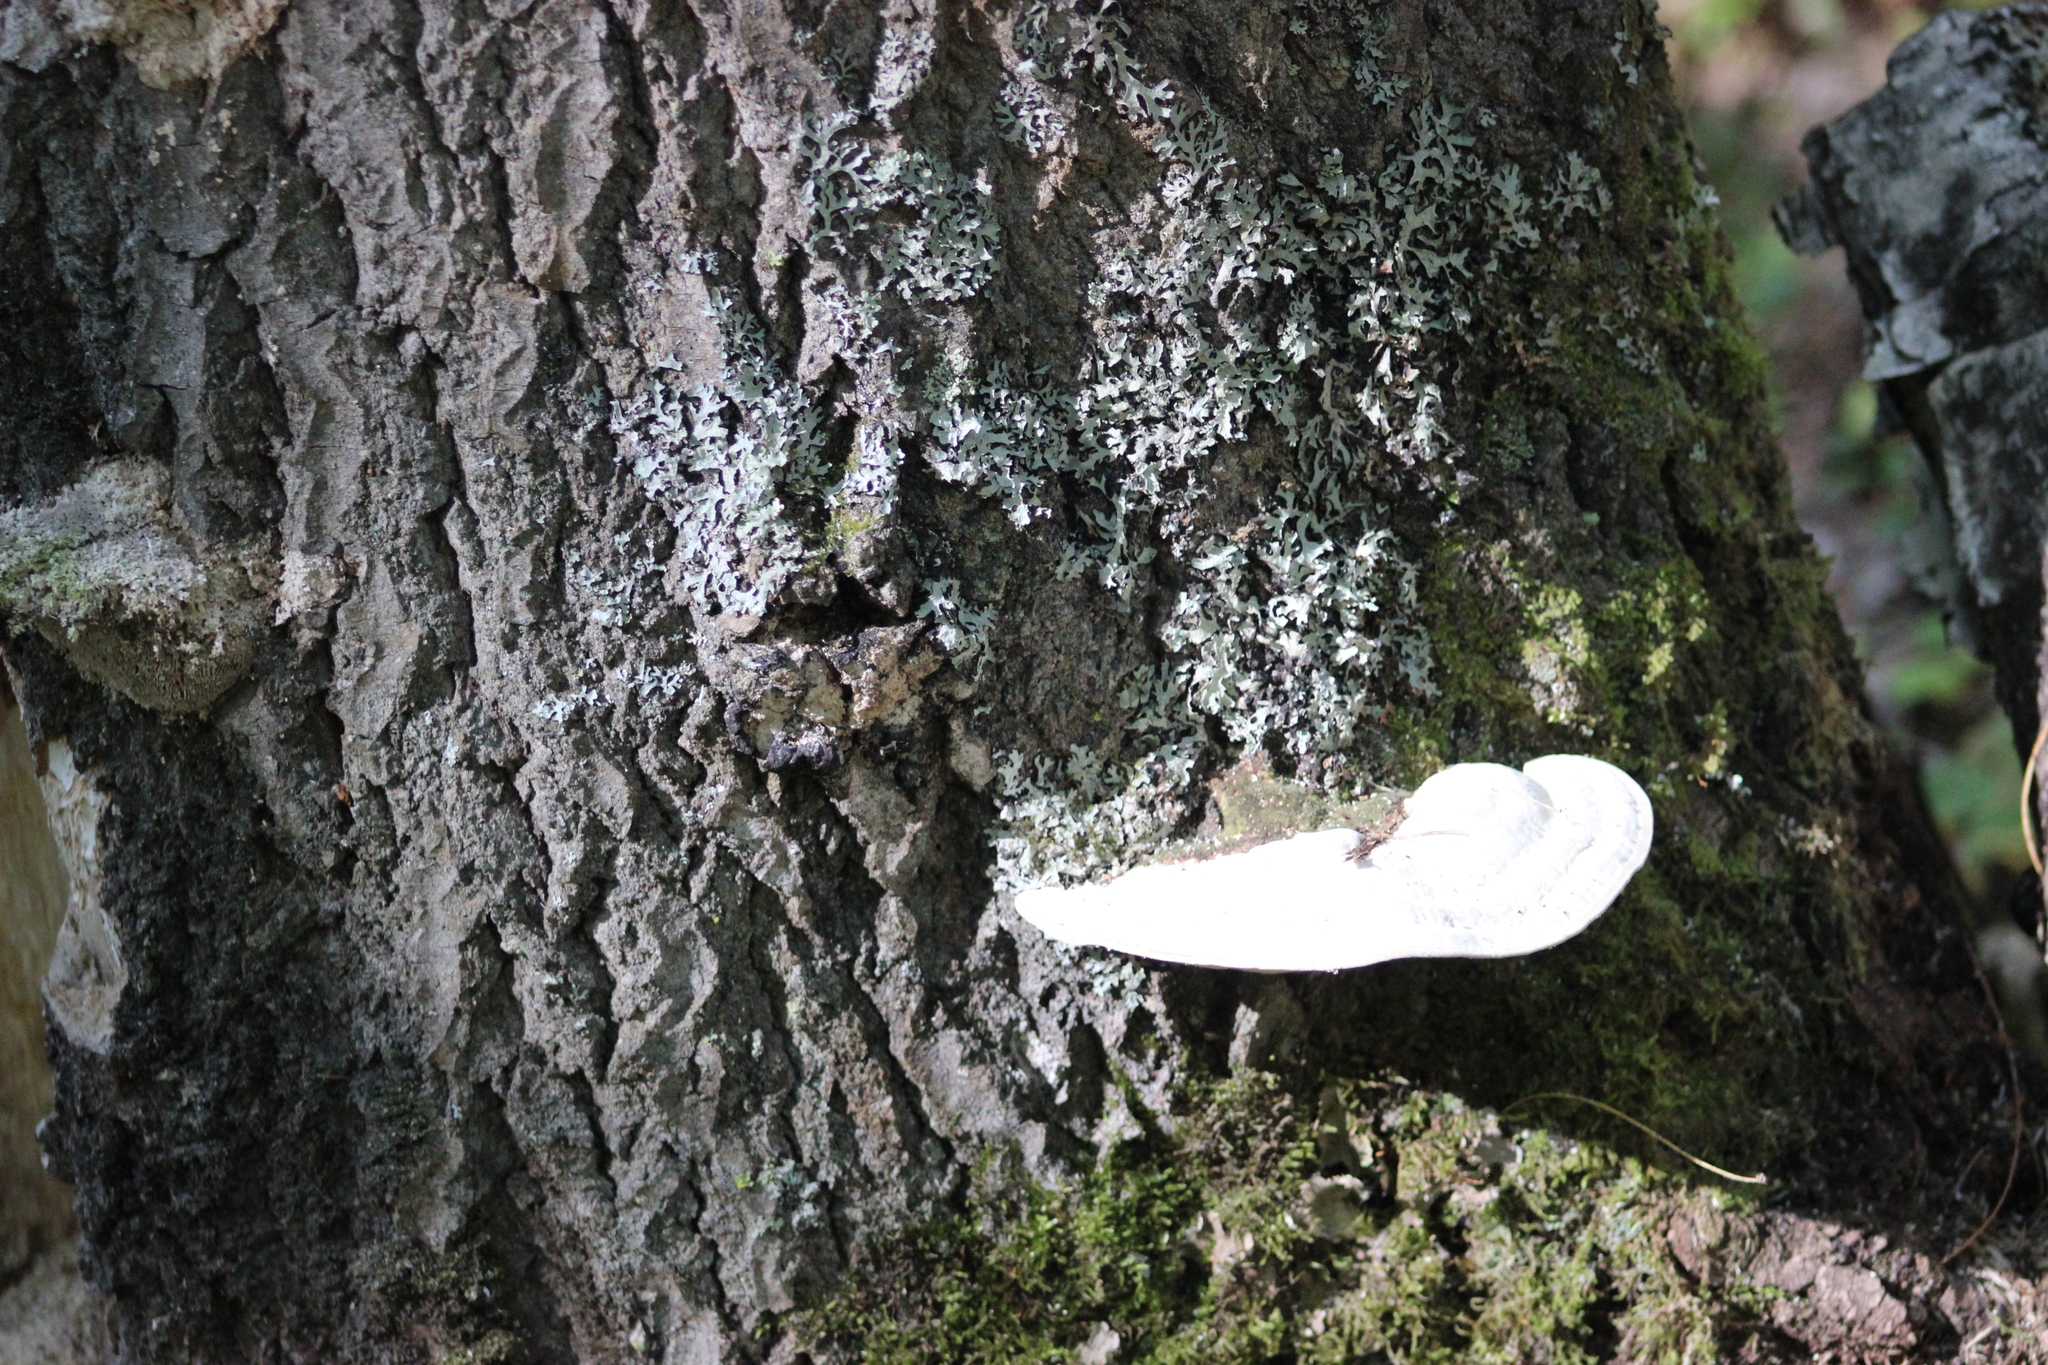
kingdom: Fungi
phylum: Basidiomycota
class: Agaricomycetes
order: Polyporales
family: Polyporaceae
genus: Trametes
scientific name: Trametes gibbosa
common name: Lumpy bracket
